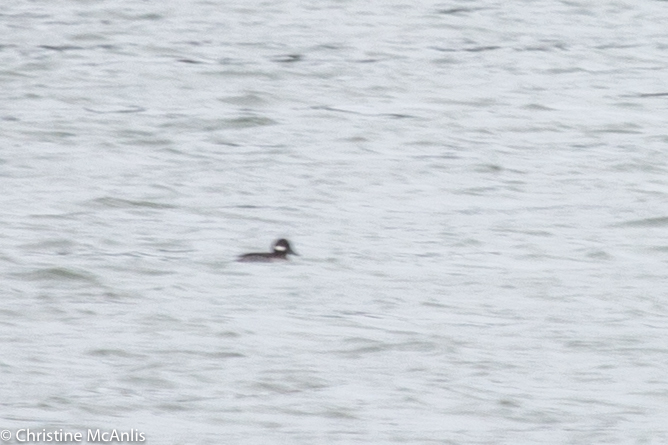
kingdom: Animalia
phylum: Chordata
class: Aves
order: Anseriformes
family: Anatidae
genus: Bucephala
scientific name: Bucephala albeola
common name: Bufflehead
